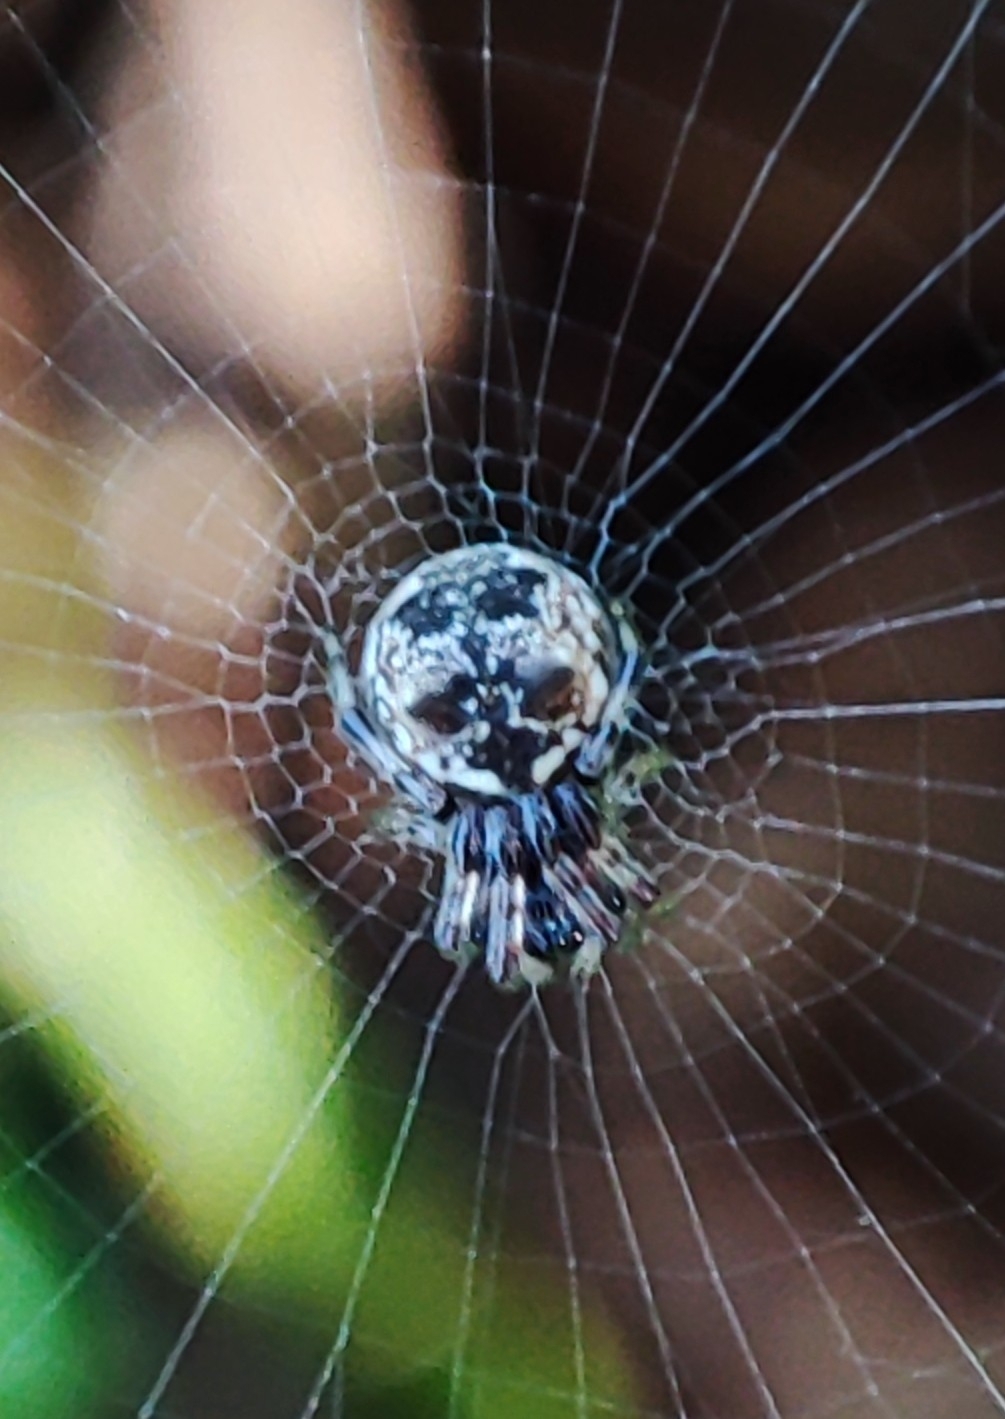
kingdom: Animalia
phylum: Arthropoda
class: Arachnida
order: Araneae
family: Araneidae
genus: Cyclosa
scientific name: Cyclosa mulmeinensis
